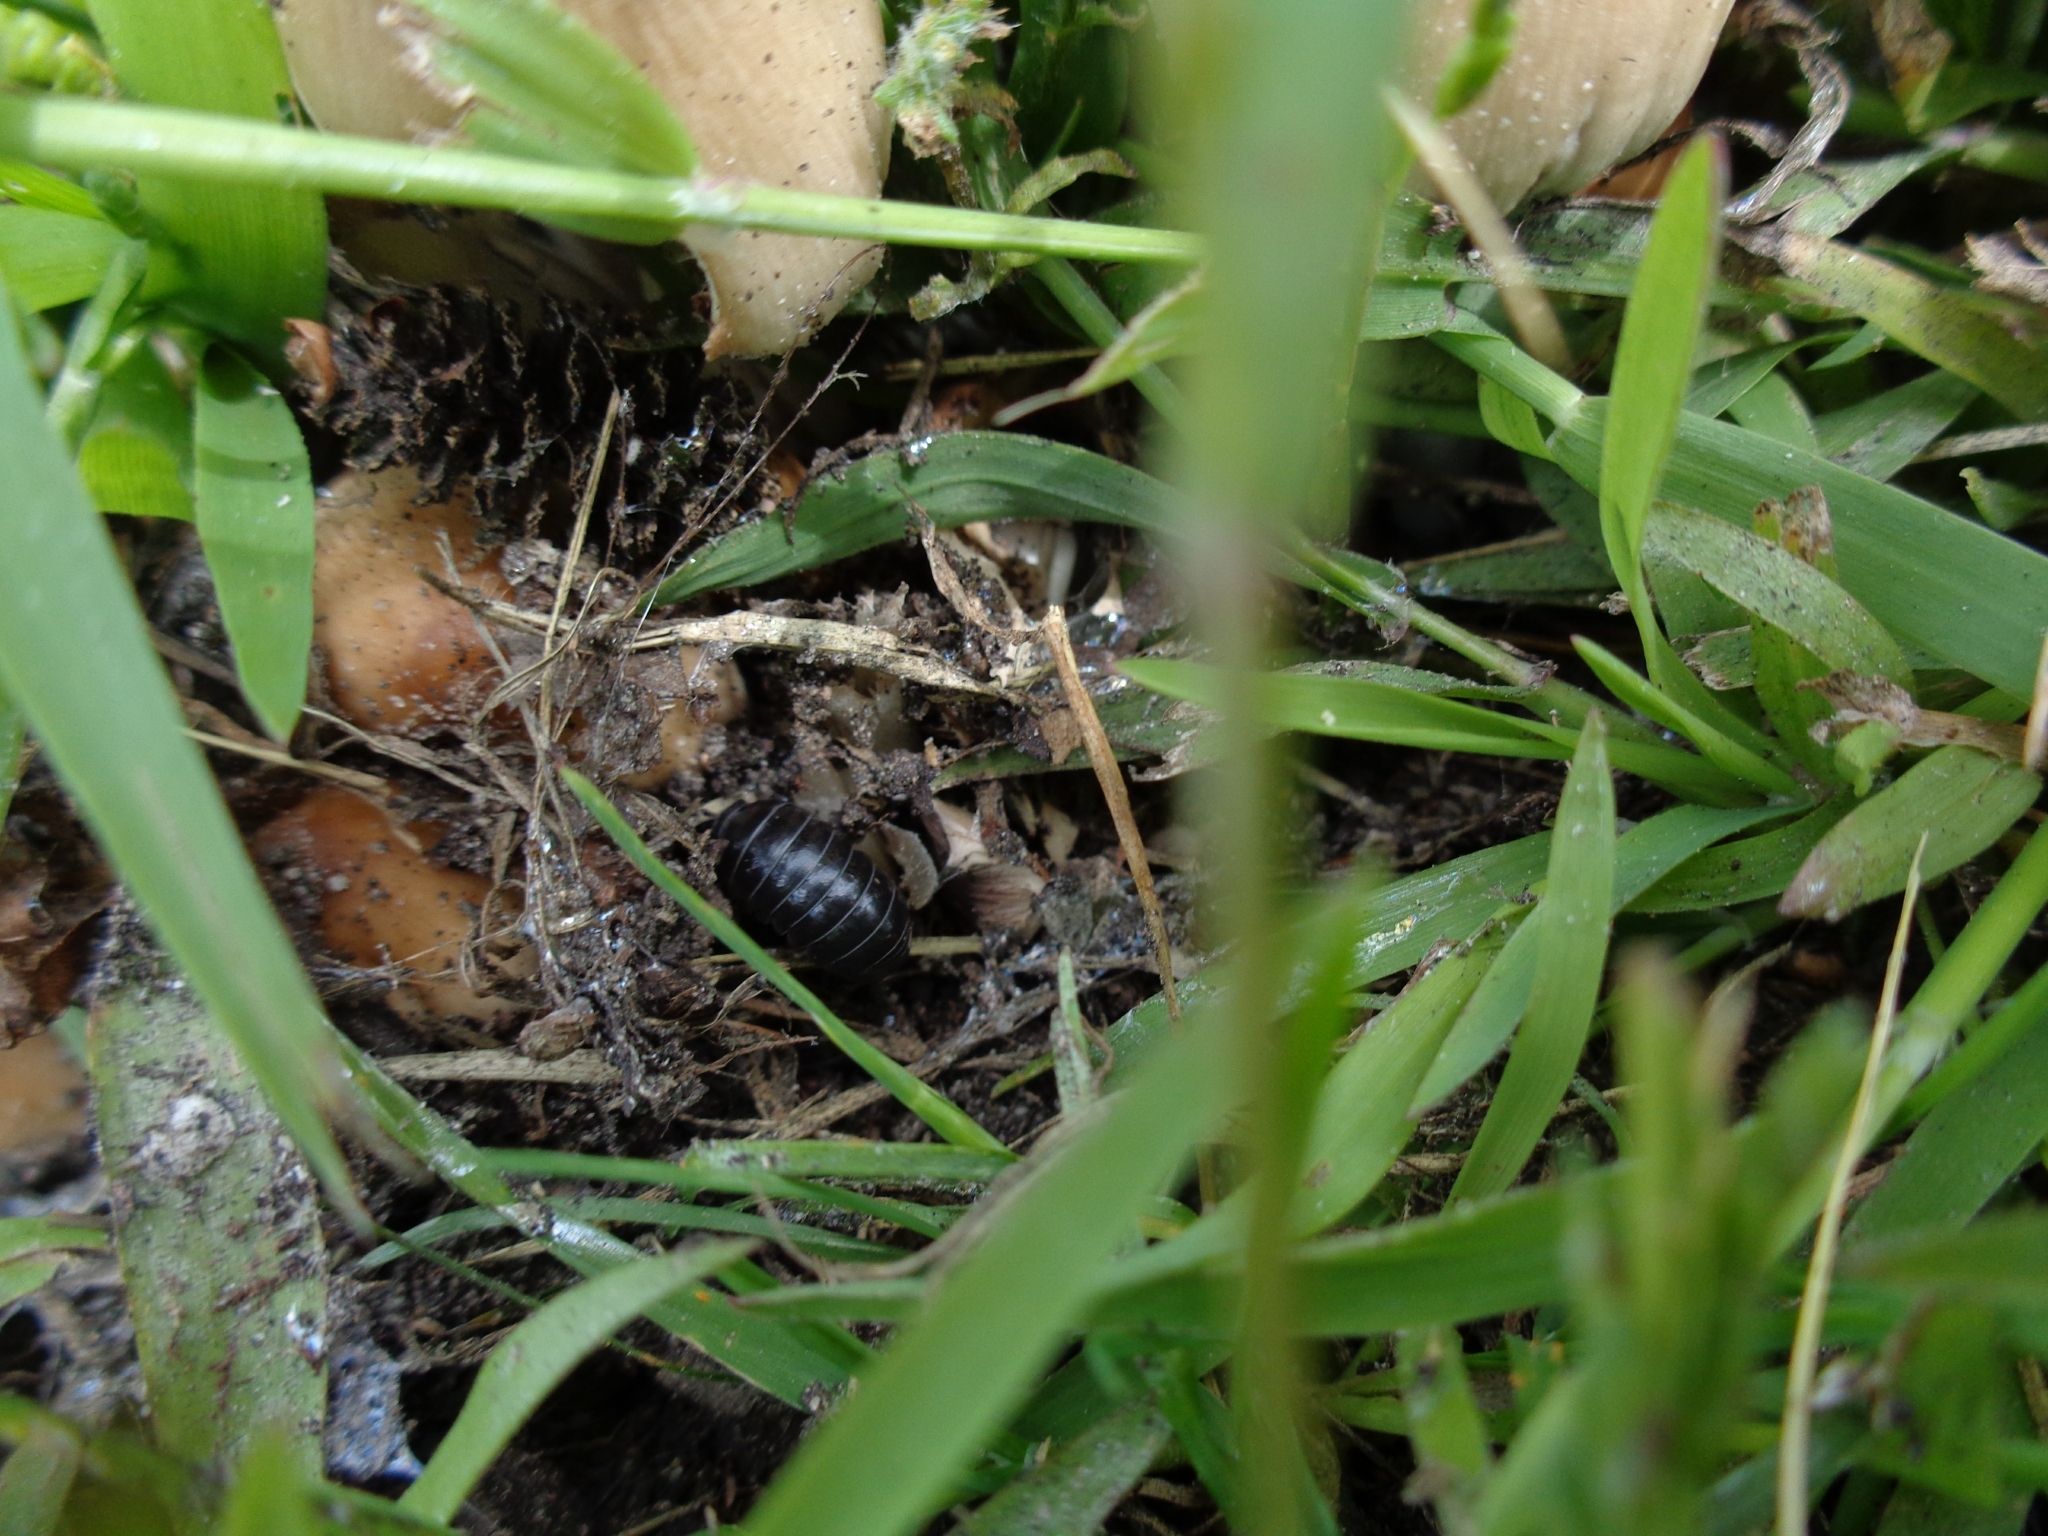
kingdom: Animalia
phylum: Arthropoda
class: Malacostraca
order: Isopoda
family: Armadillidiidae
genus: Armadillidium
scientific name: Armadillidium vulgare
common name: Common pill woodlouse
